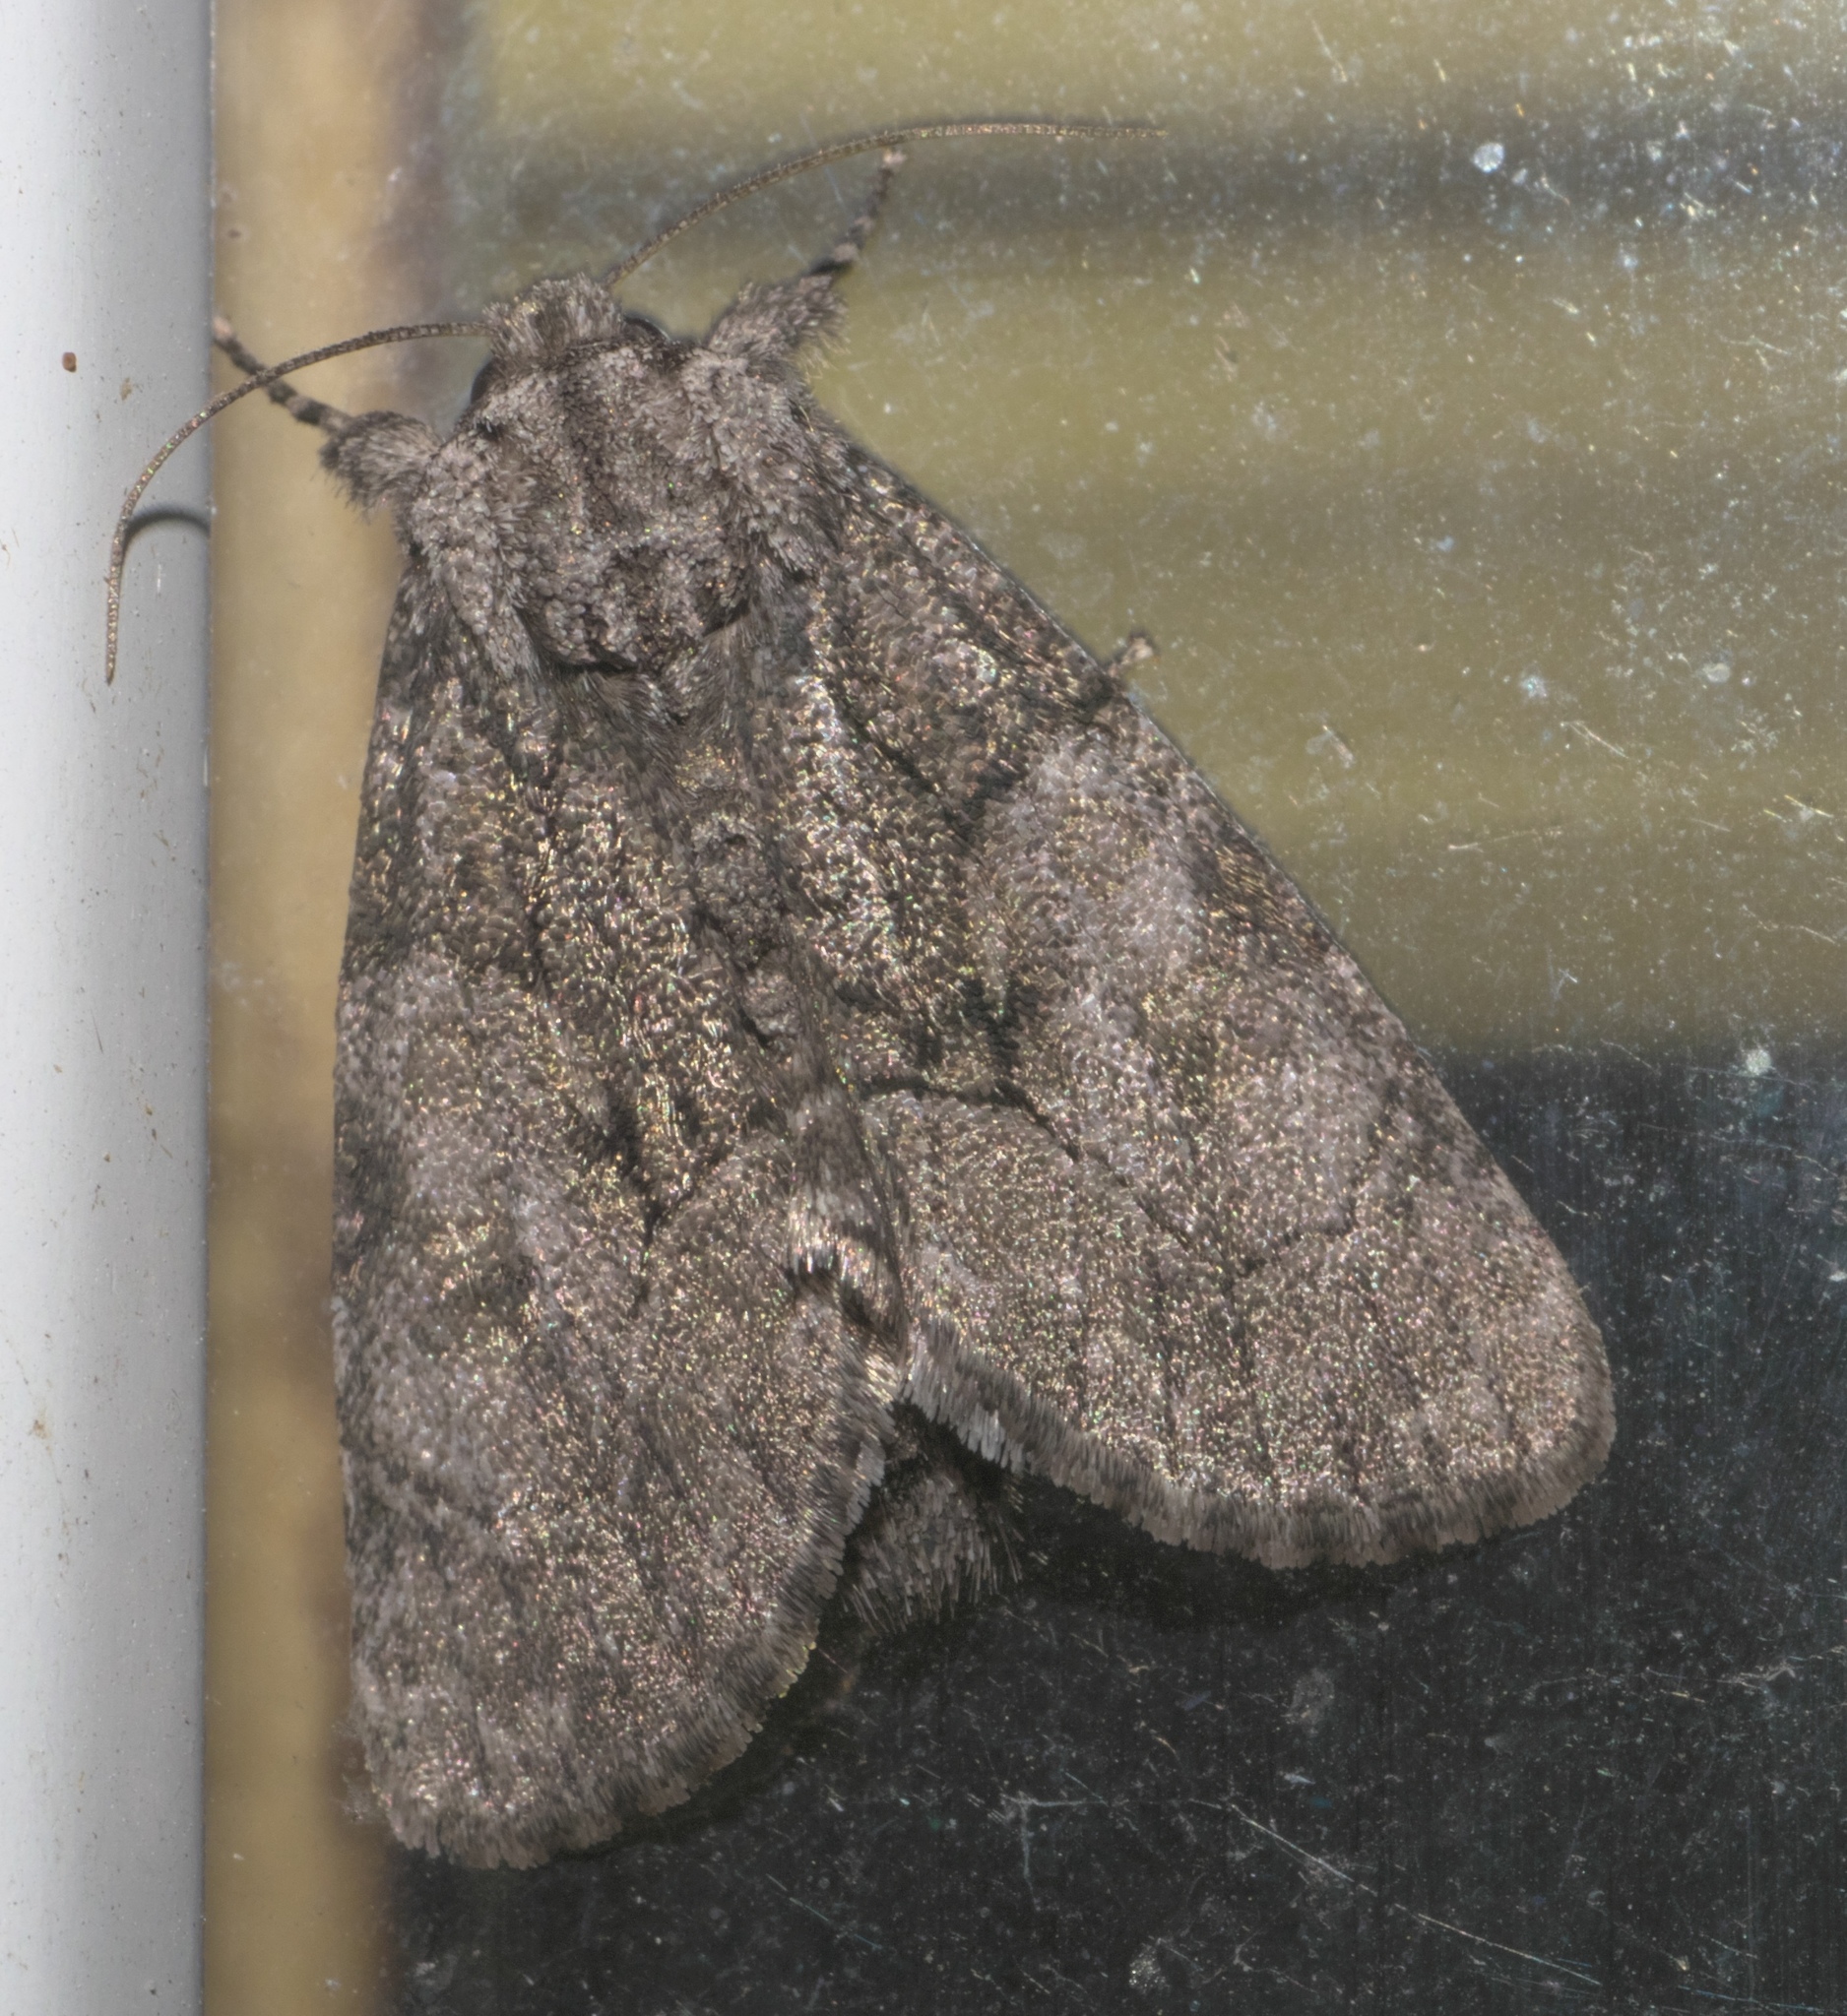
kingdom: Animalia
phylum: Arthropoda
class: Insecta
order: Lepidoptera
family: Noctuidae
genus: Raphia
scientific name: Raphia frater
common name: Brother
